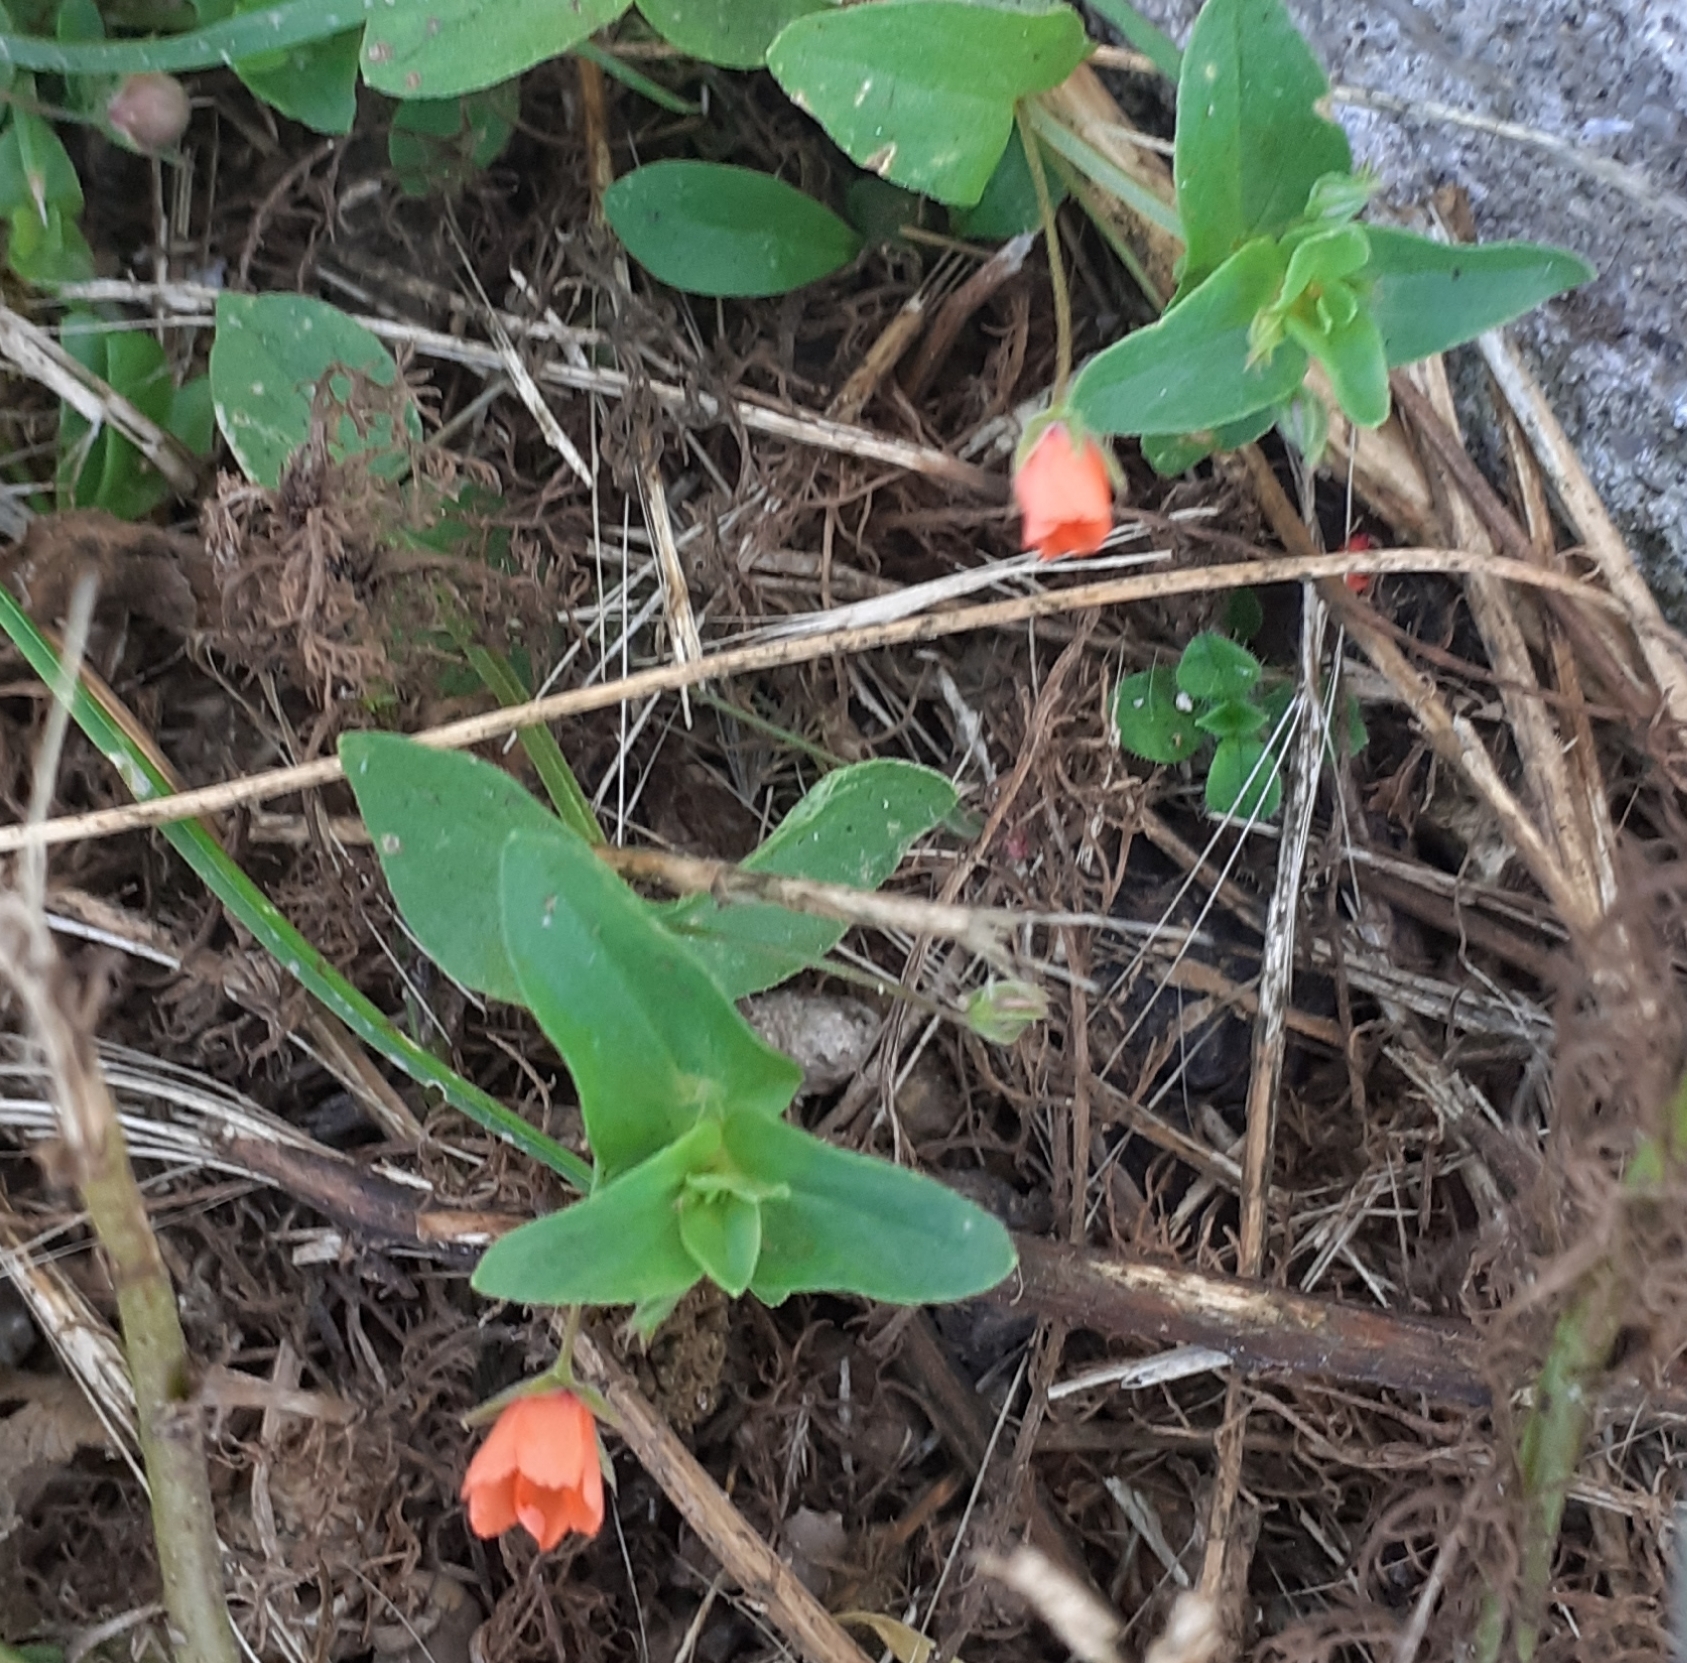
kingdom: Plantae
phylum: Tracheophyta
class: Magnoliopsida
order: Ericales
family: Primulaceae
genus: Lysimachia
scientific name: Lysimachia arvensis
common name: Scarlet pimpernel
